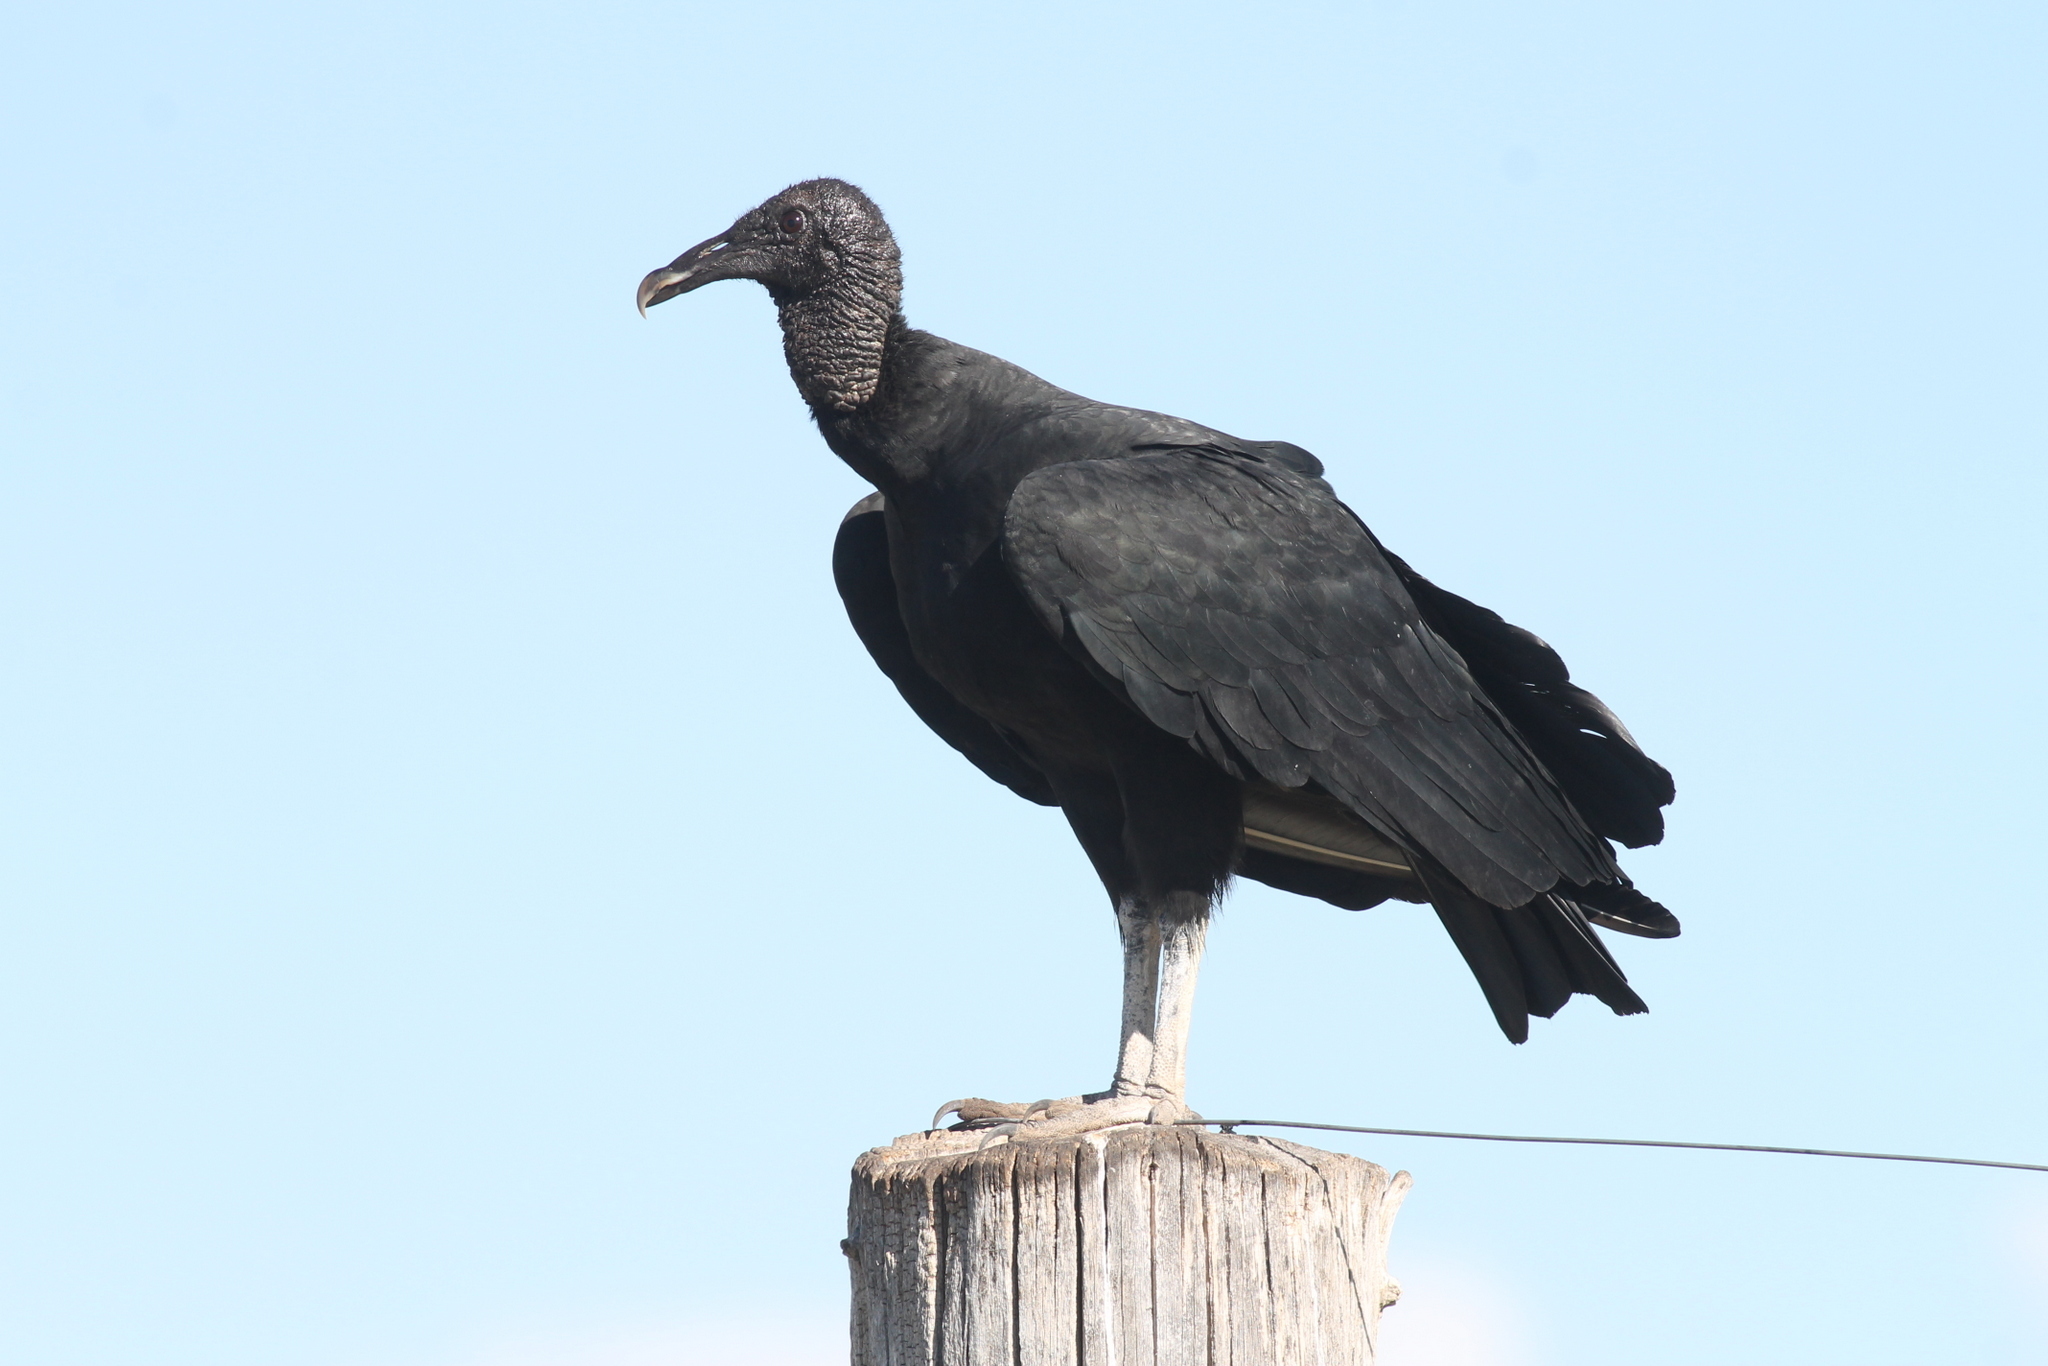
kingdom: Animalia
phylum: Chordata
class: Aves
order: Accipitriformes
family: Cathartidae
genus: Coragyps
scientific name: Coragyps atratus
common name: Black vulture
